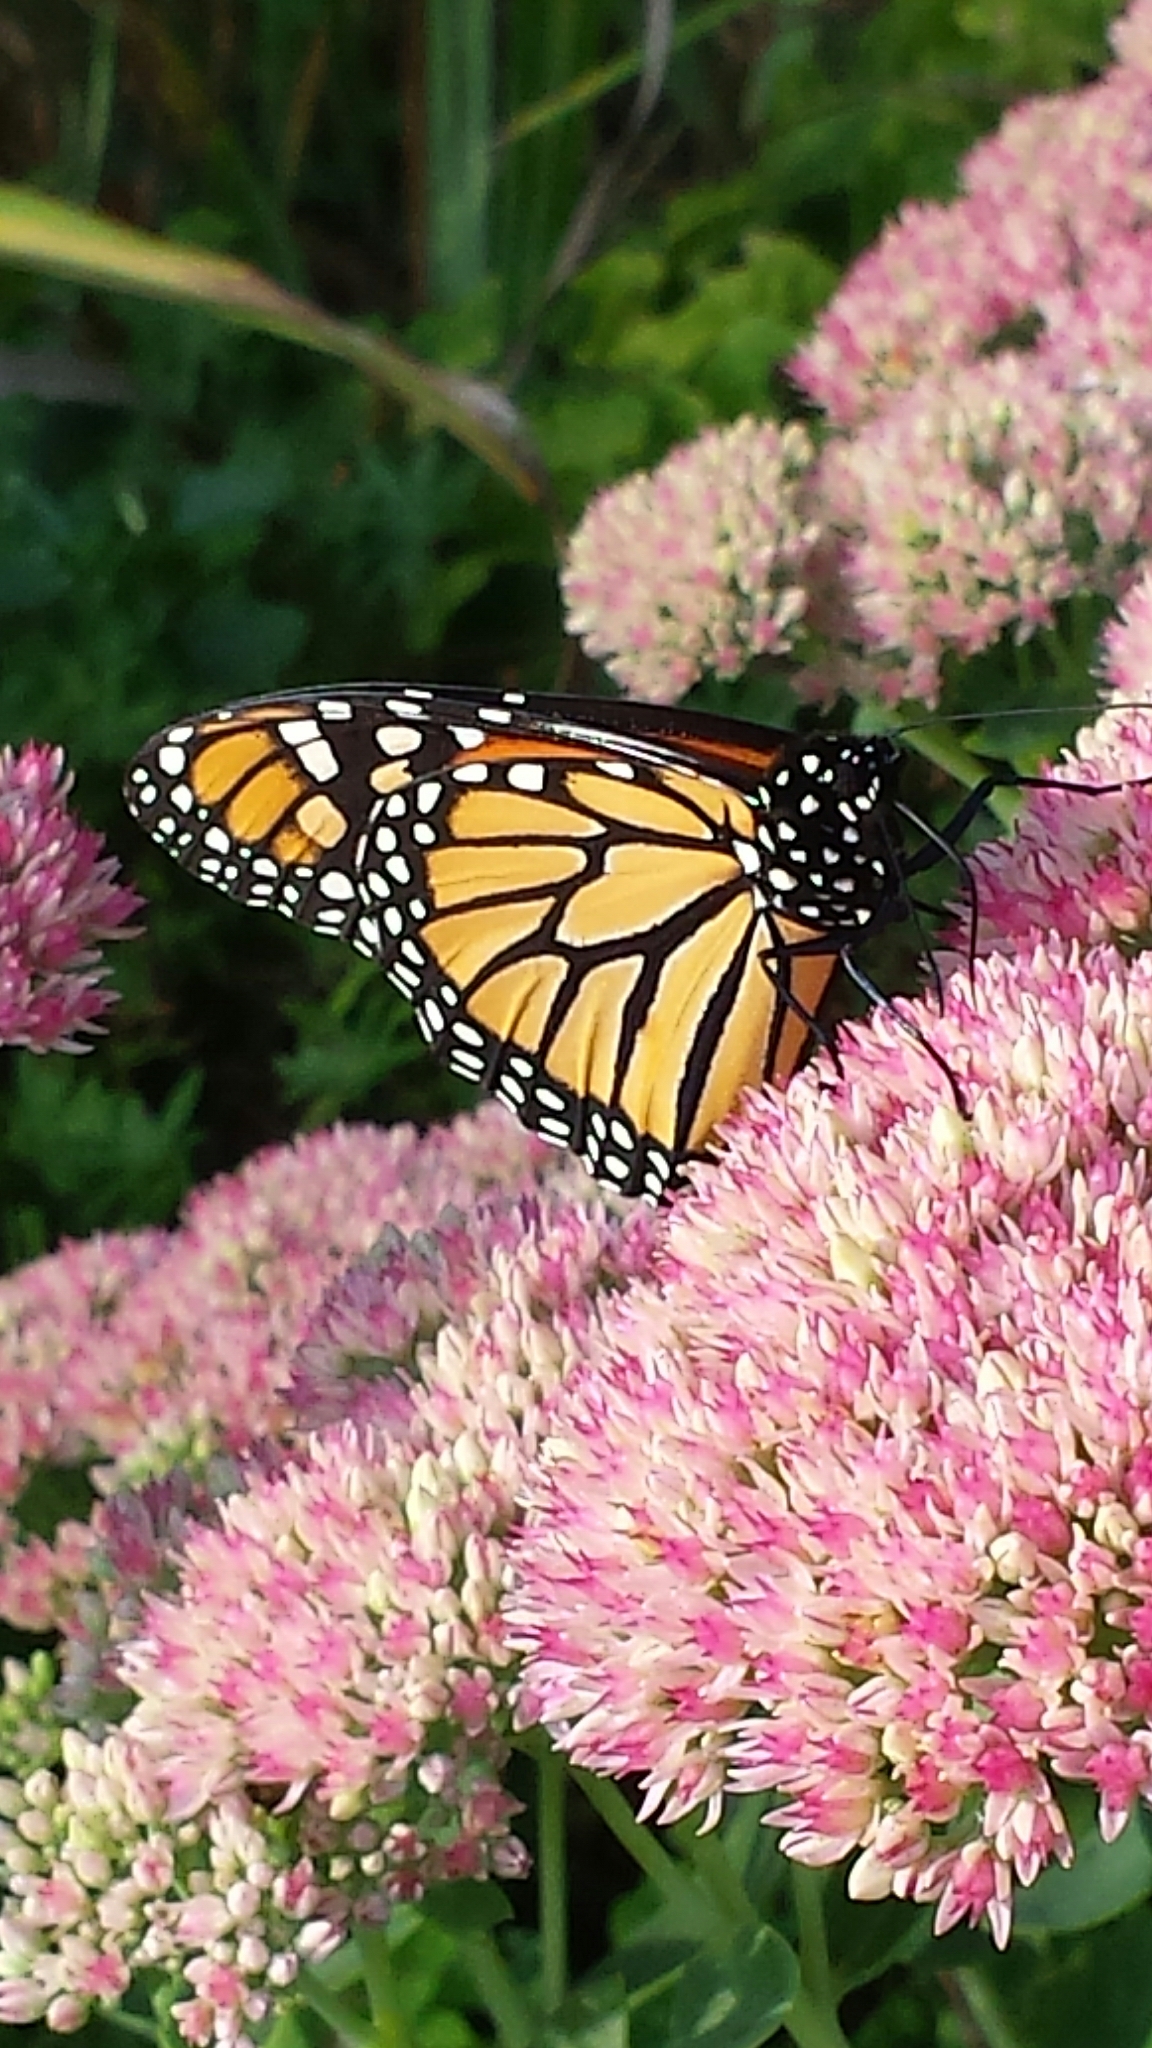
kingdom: Animalia
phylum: Arthropoda
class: Insecta
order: Lepidoptera
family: Nymphalidae
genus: Danaus
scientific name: Danaus plexippus
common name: Monarch
